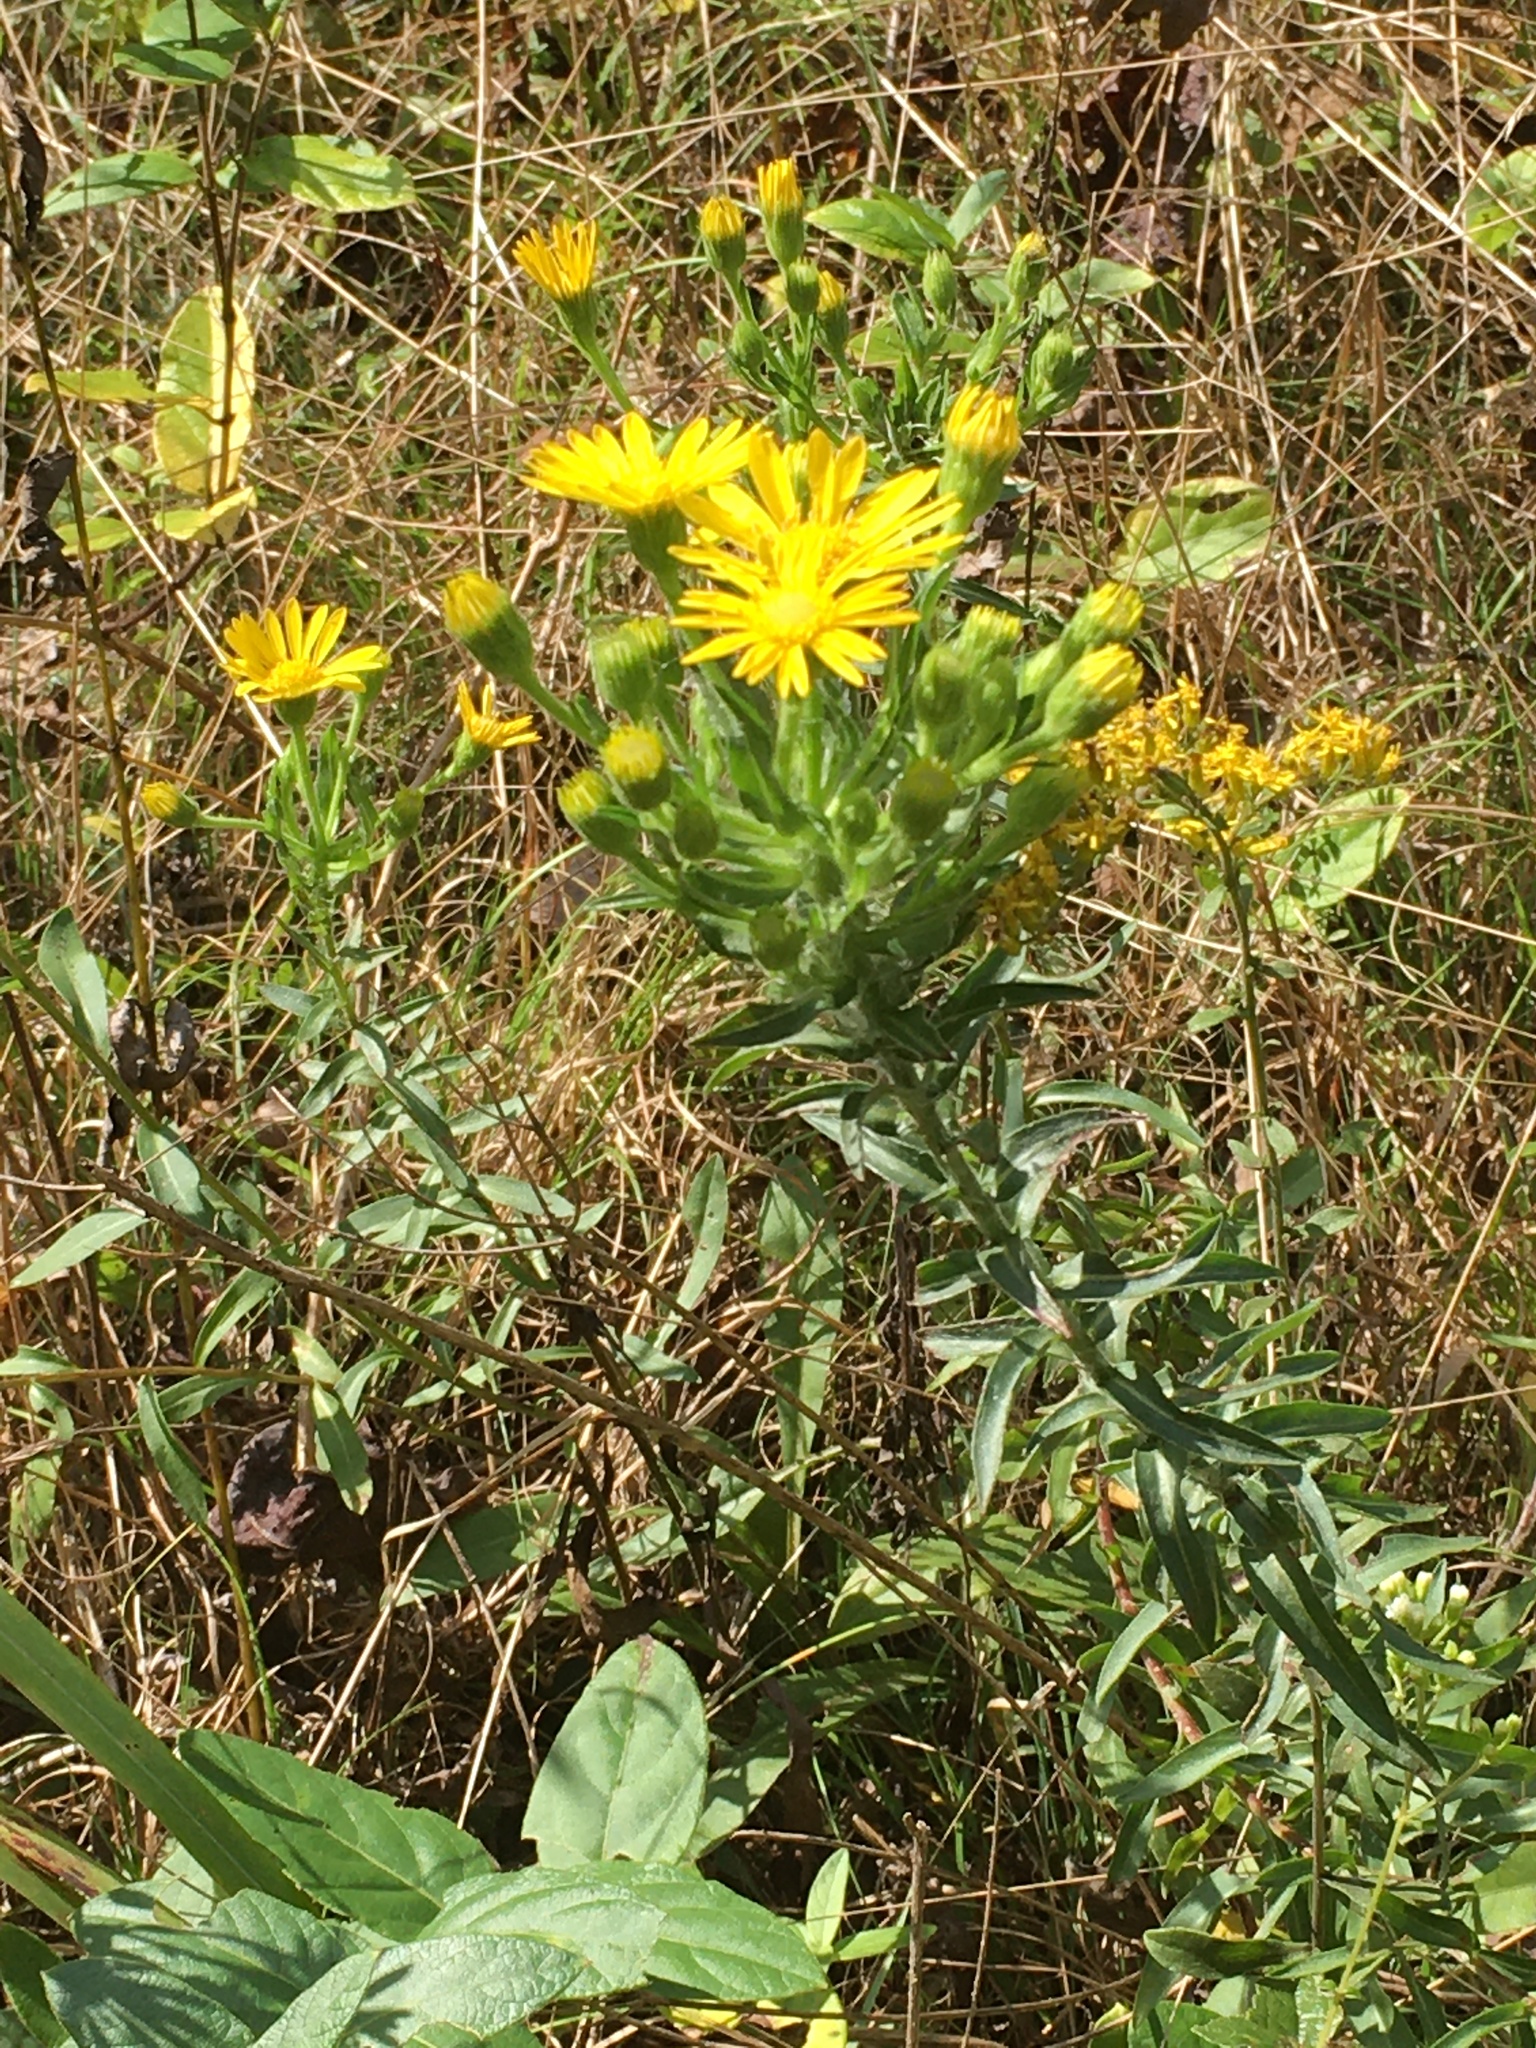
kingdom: Plantae
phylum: Tracheophyta
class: Magnoliopsida
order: Asterales
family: Asteraceae
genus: Chrysopsis
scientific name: Chrysopsis mariana
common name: Maryland golden-aster
